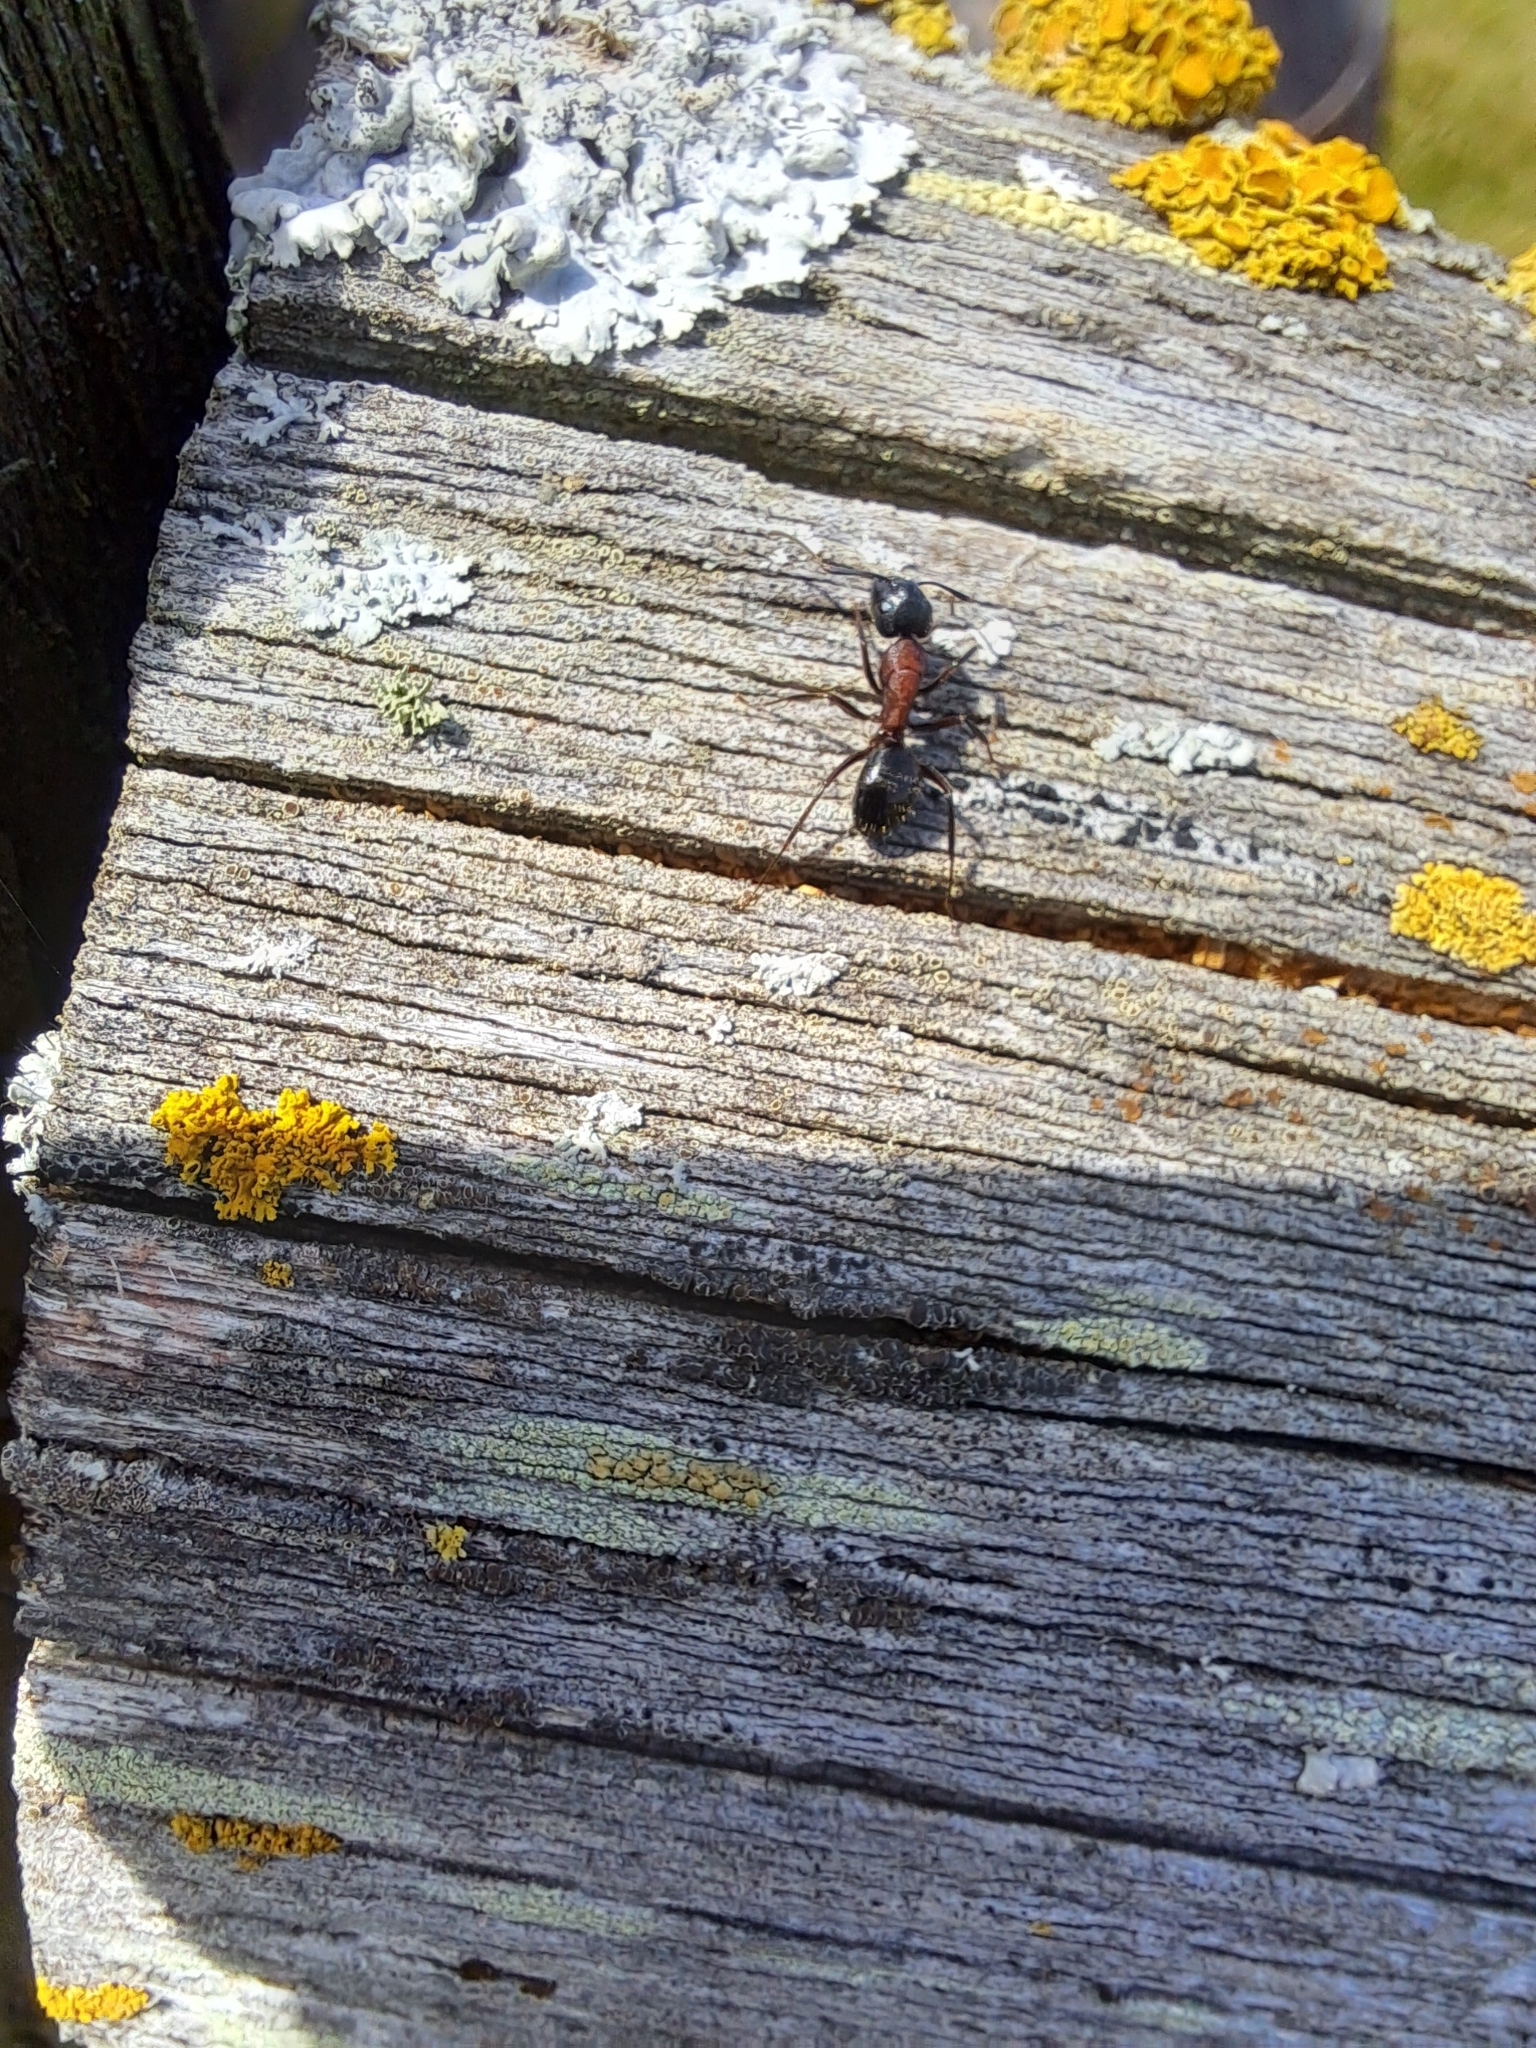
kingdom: Animalia
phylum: Arthropoda
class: Insecta
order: Hymenoptera
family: Formicidae
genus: Camponotus
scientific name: Camponotus novaeboracensis
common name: New york carpenter ant
